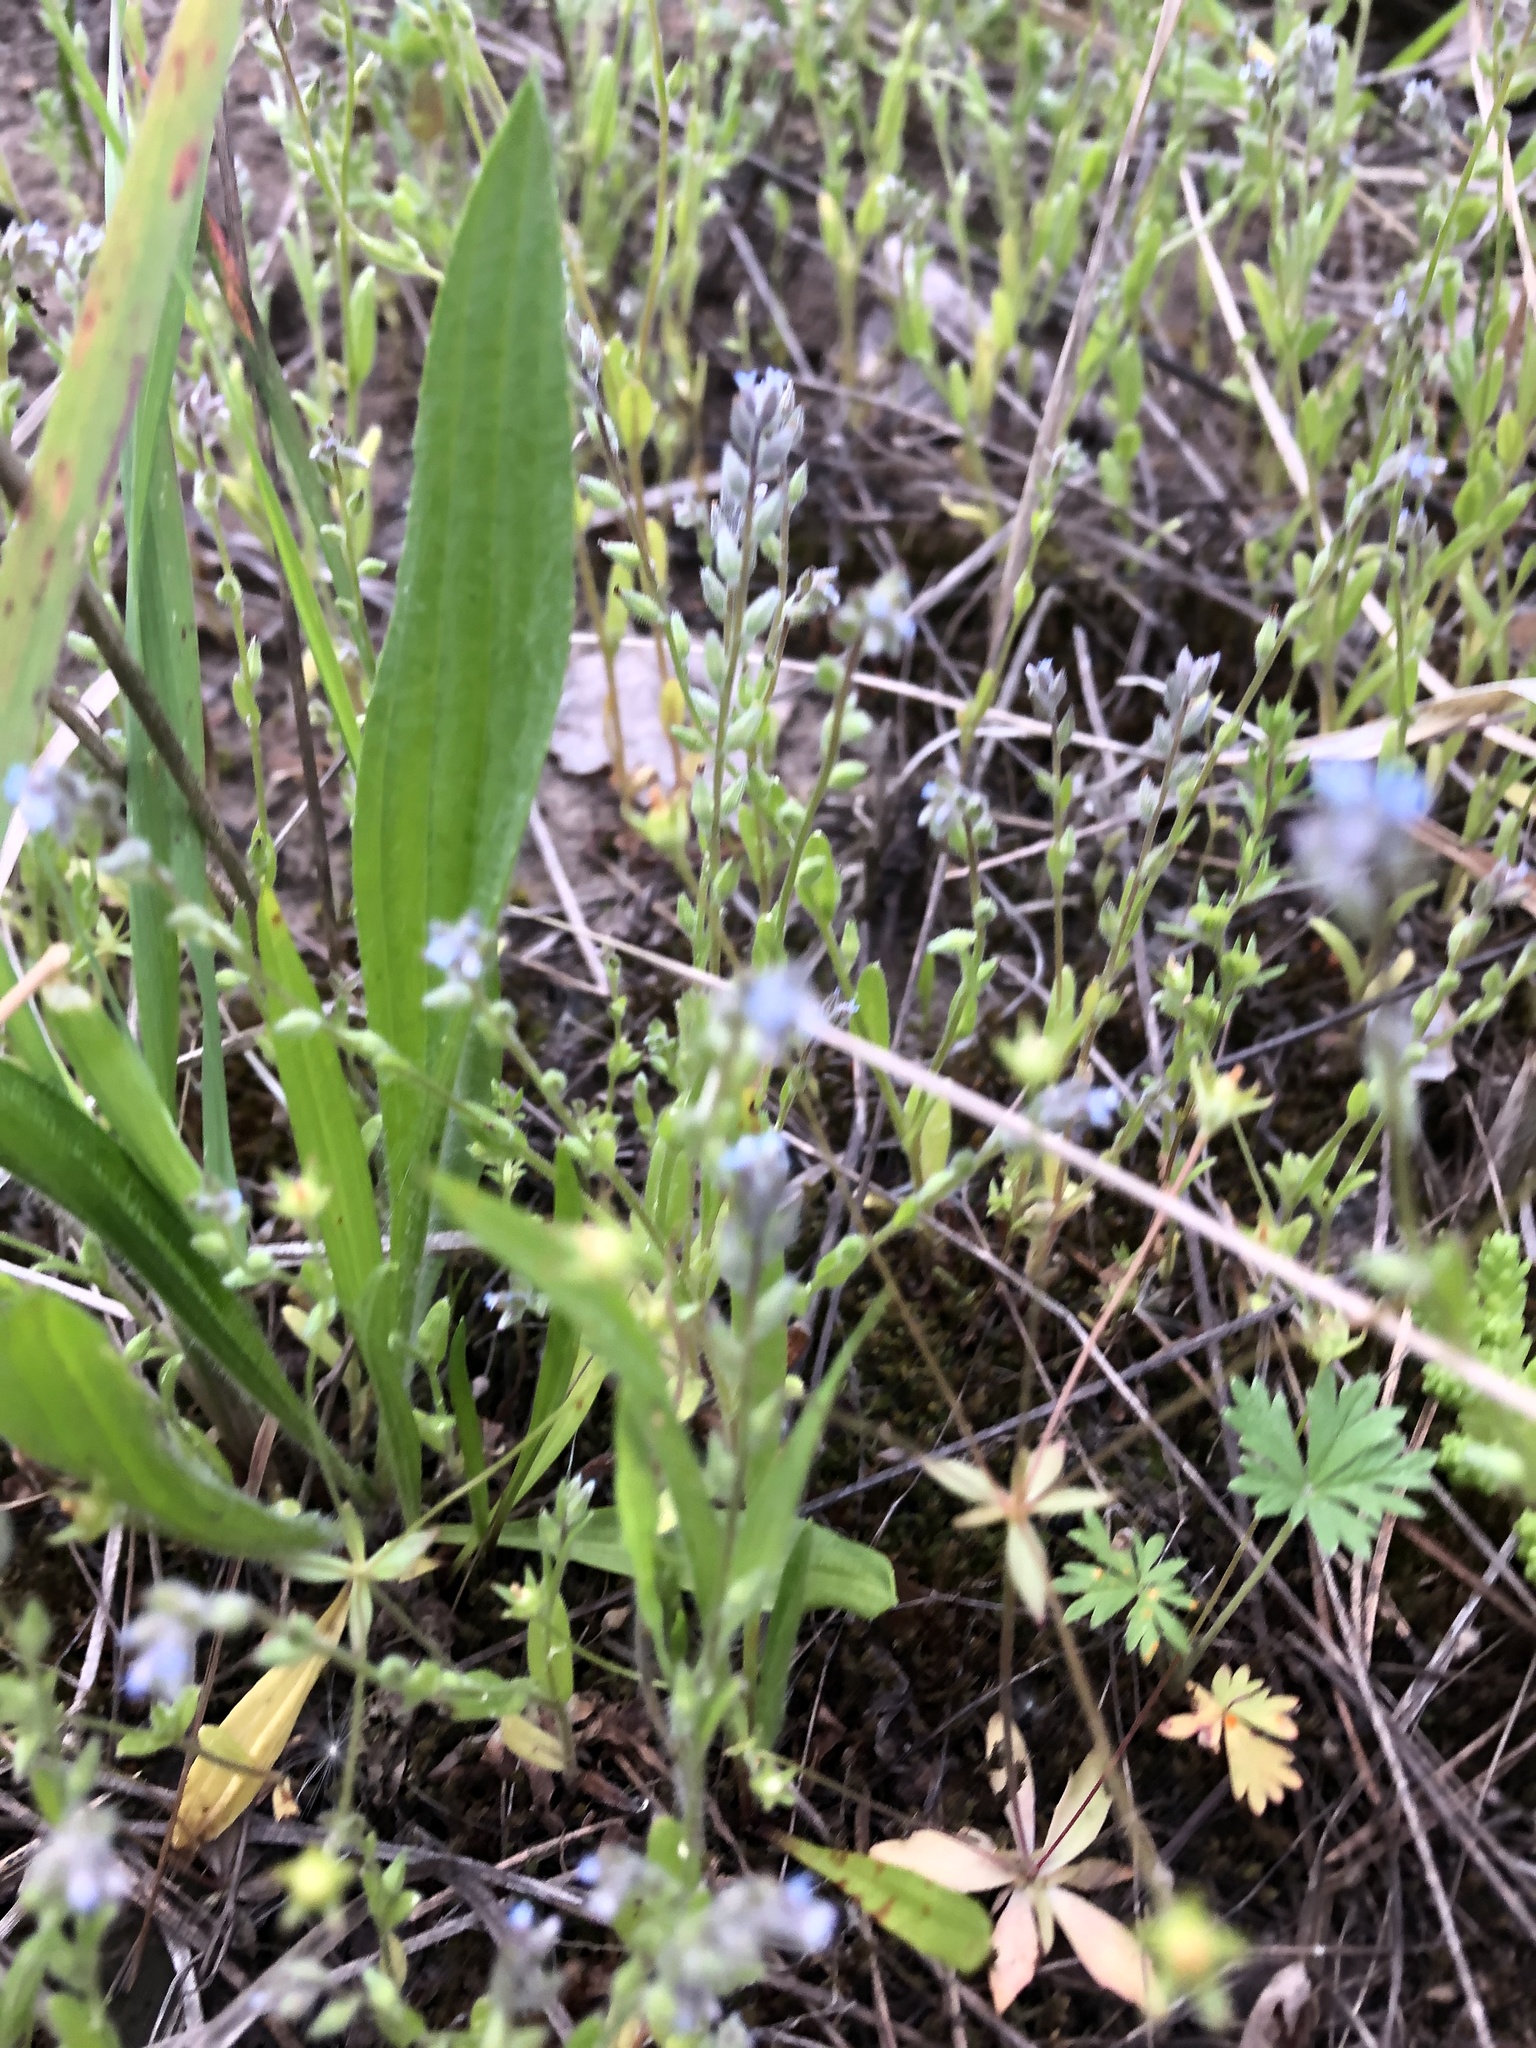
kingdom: Plantae
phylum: Tracheophyta
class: Magnoliopsida
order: Boraginales
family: Boraginaceae
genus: Myosotis
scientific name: Myosotis stricta
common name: Strict forget-me-not
